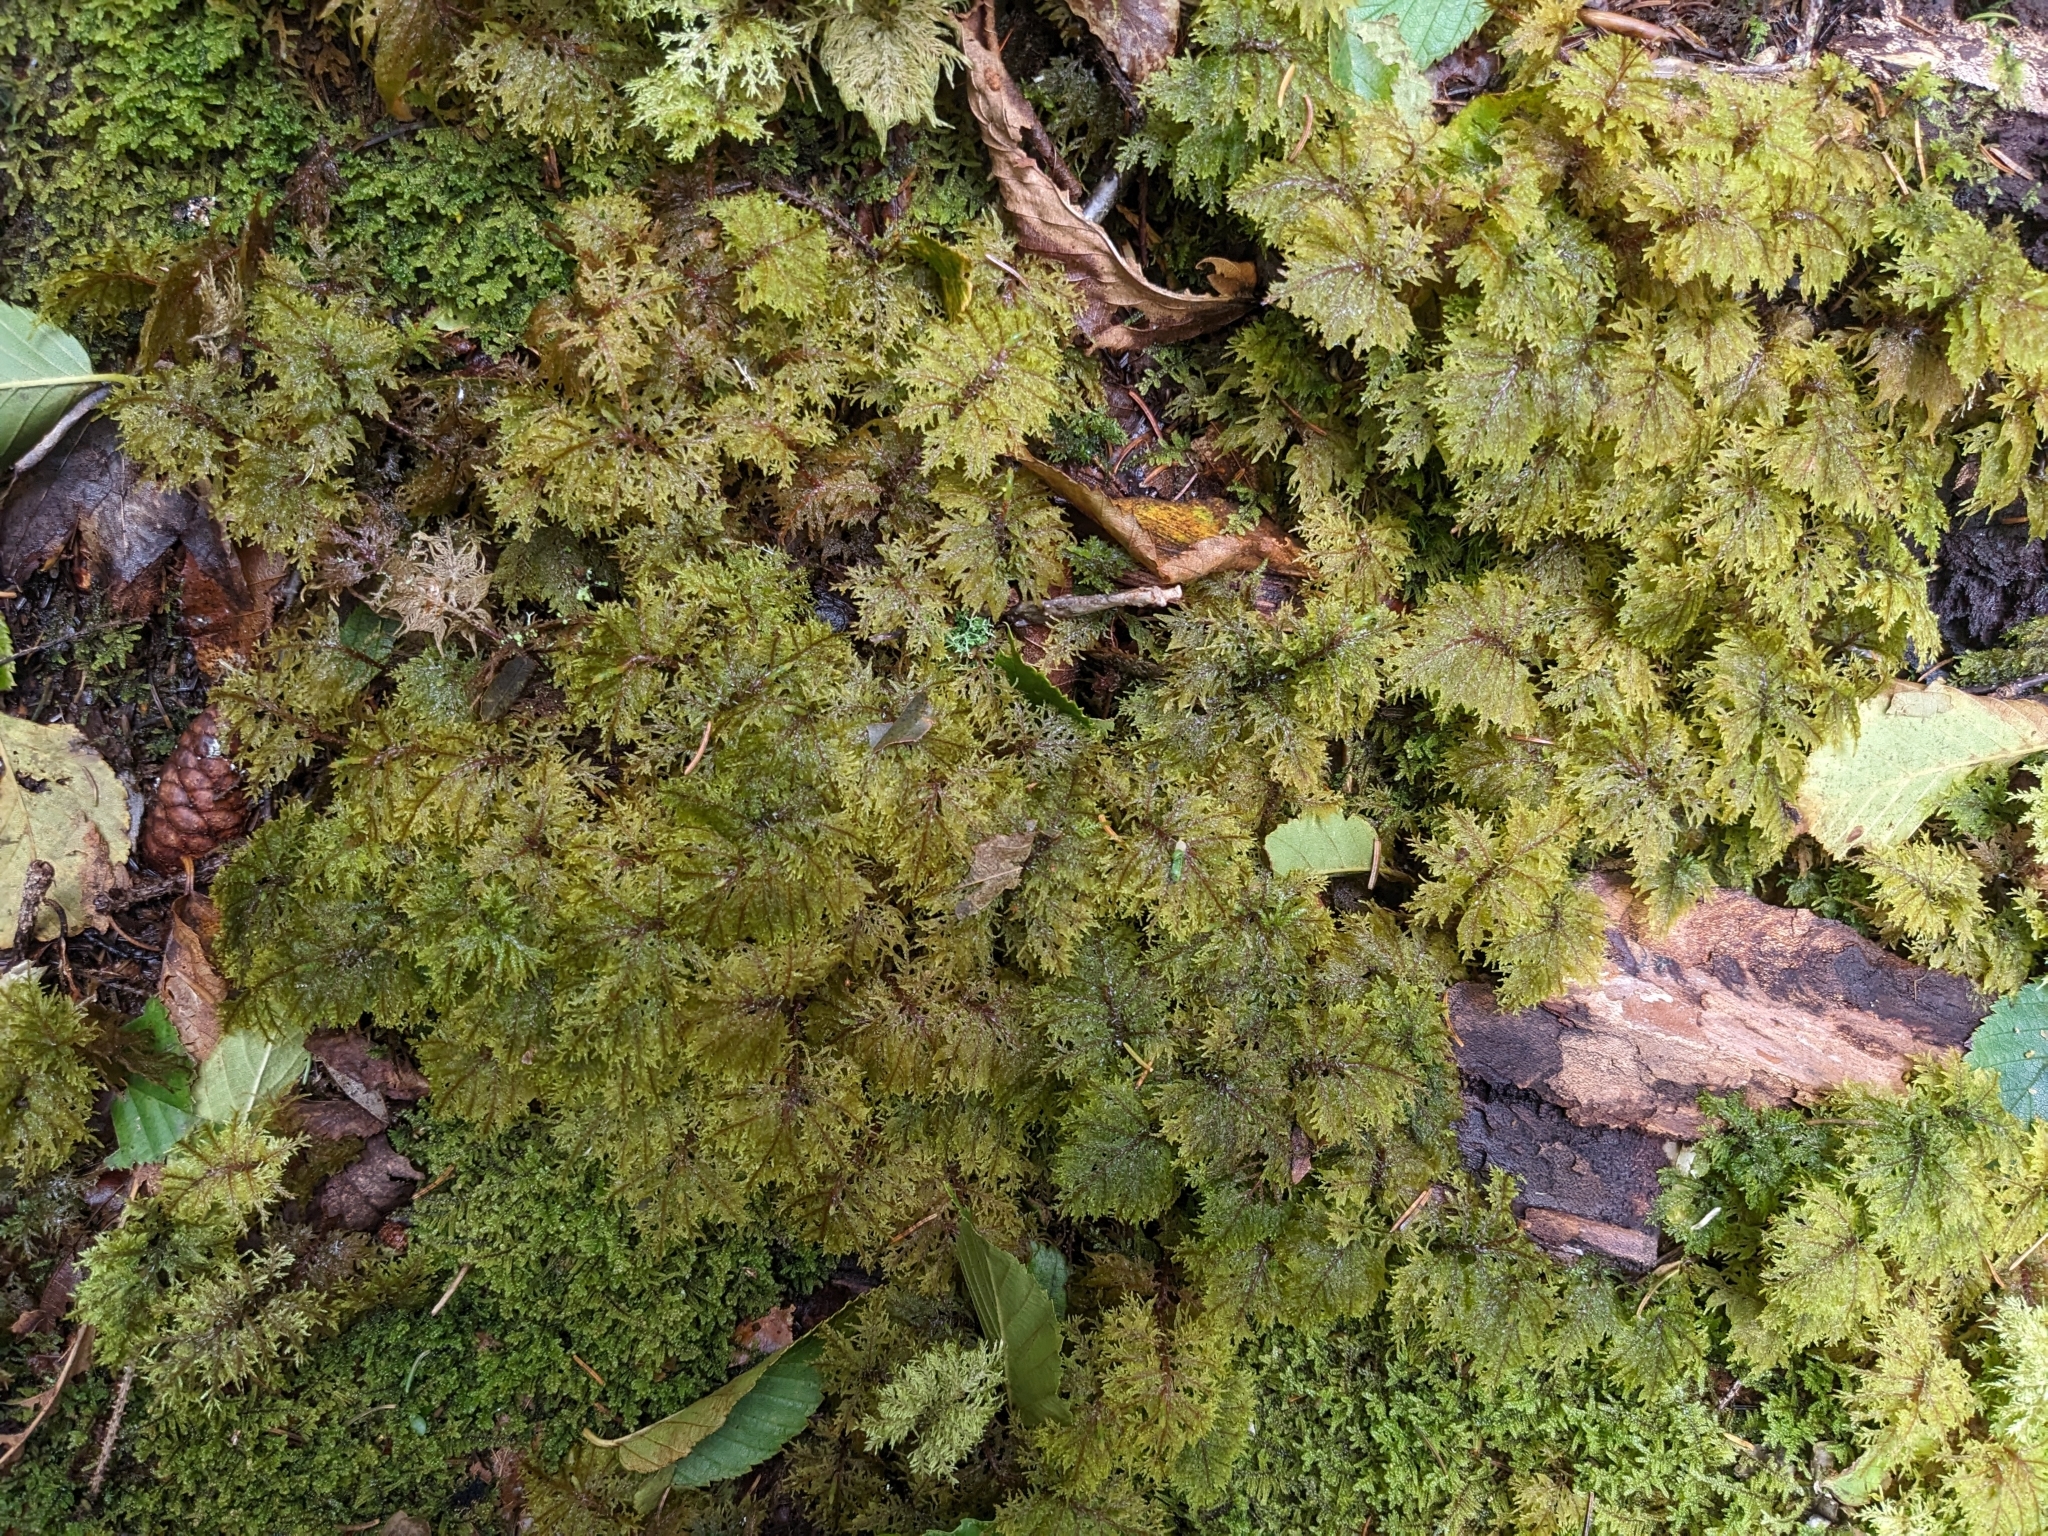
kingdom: Plantae
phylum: Bryophyta
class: Bryopsida
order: Hypnales
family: Hylocomiaceae
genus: Hylocomium
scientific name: Hylocomium splendens
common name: Stairstep moss
